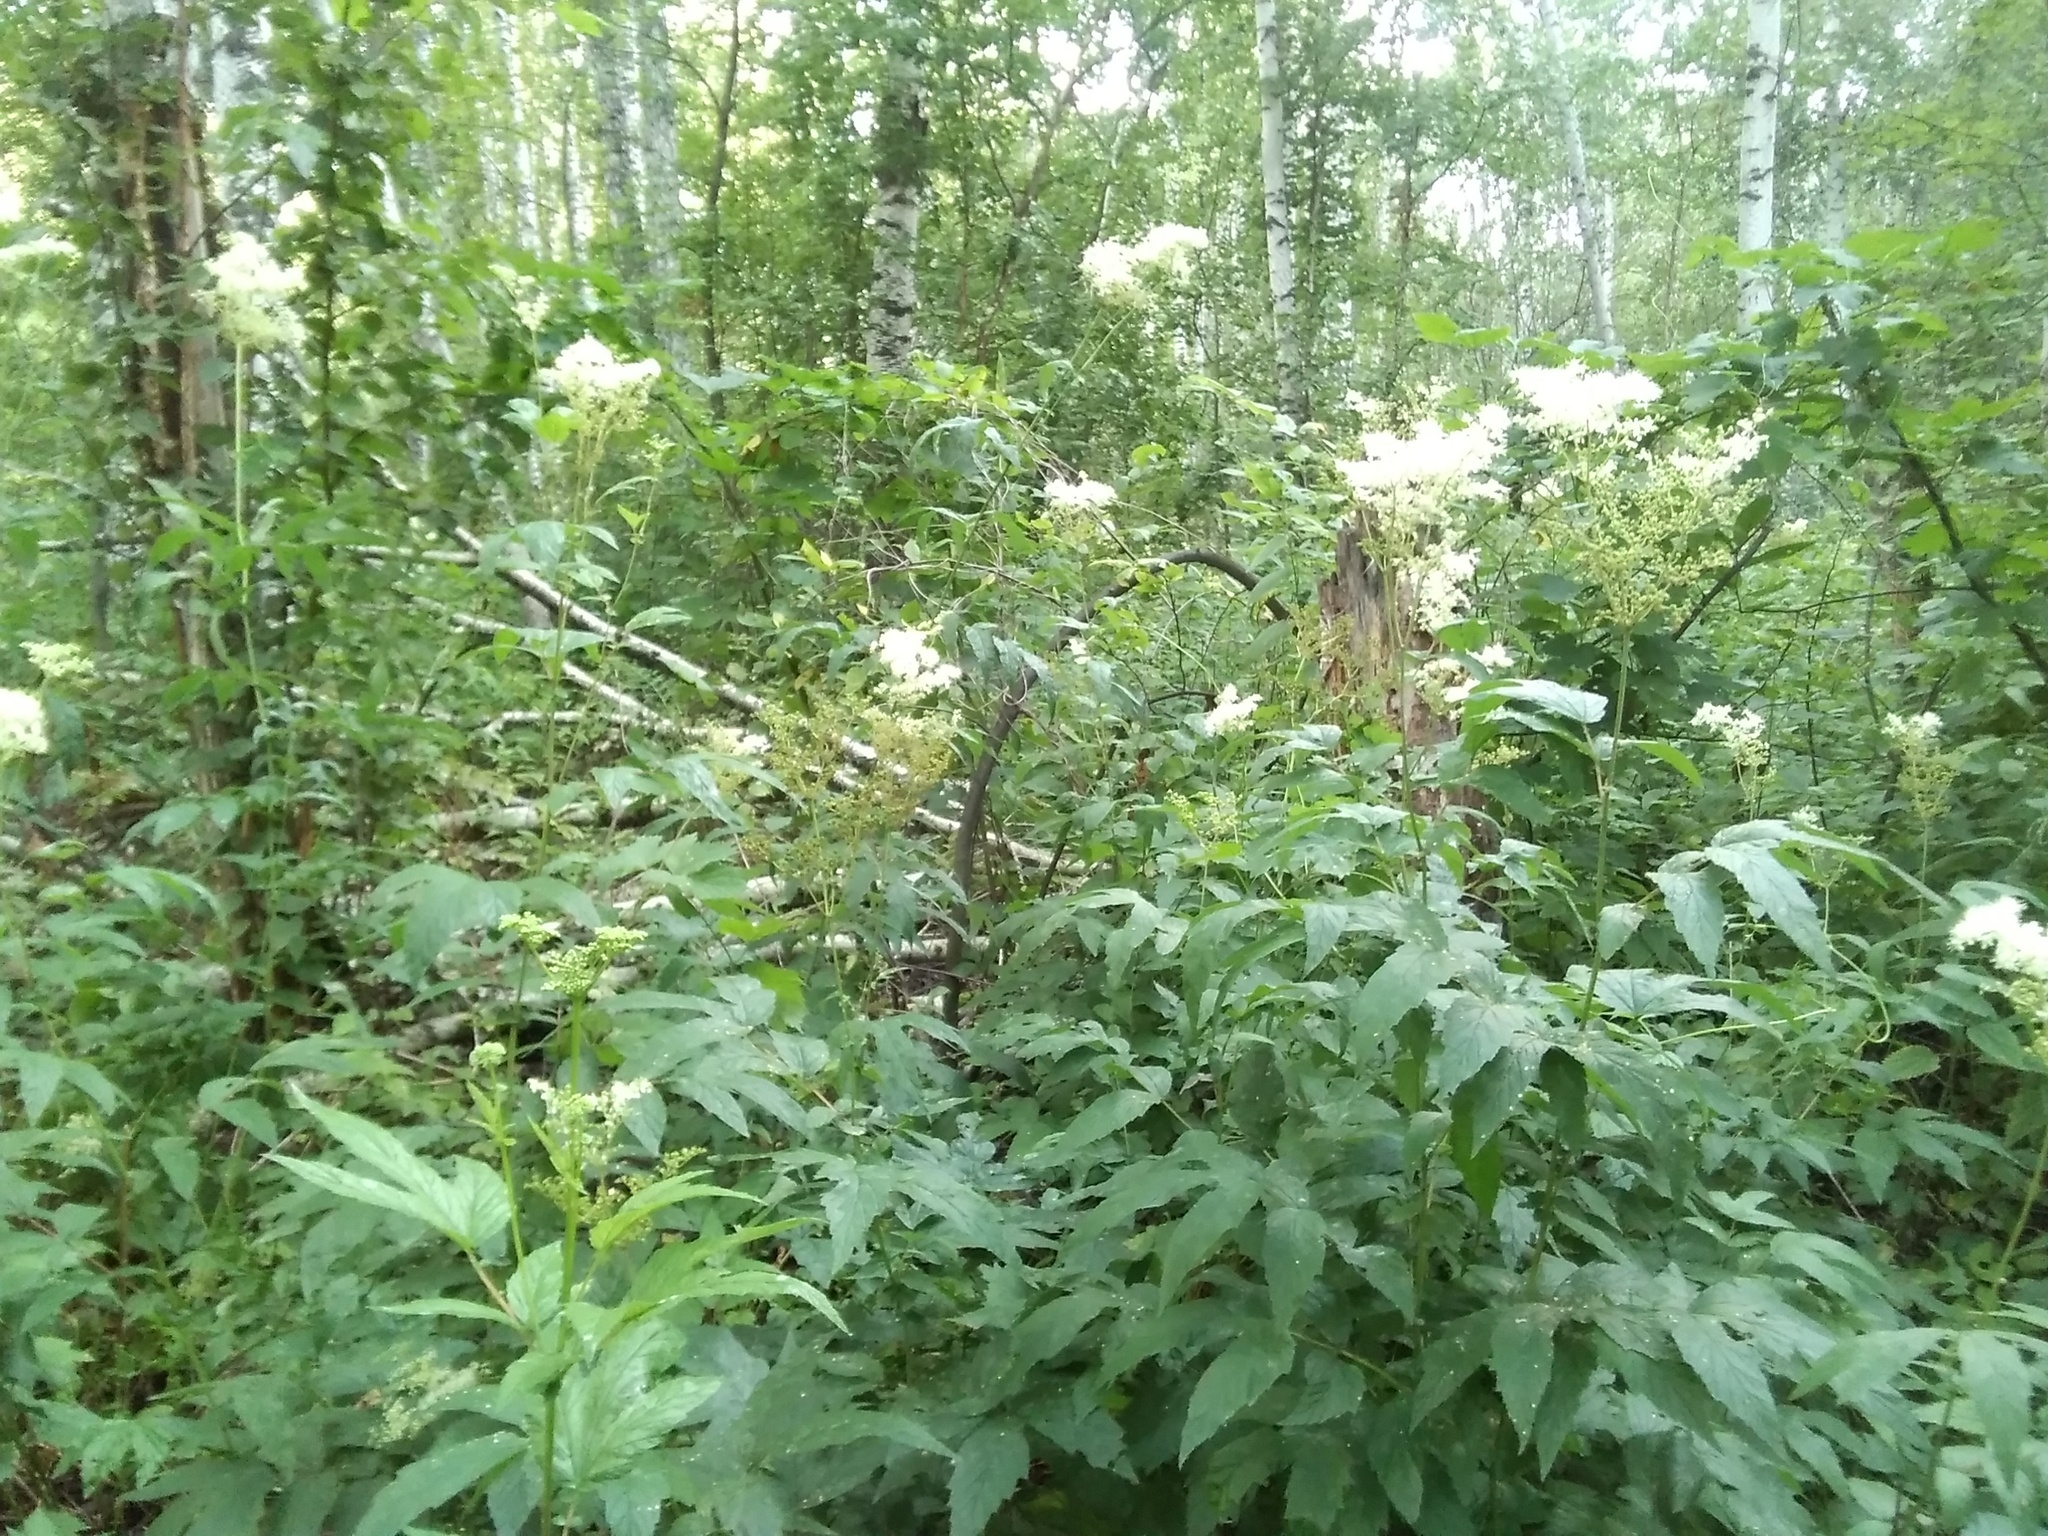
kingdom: Plantae
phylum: Tracheophyta
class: Magnoliopsida
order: Rosales
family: Rosaceae
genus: Filipendula
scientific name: Filipendula ulmaria
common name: Meadowsweet
